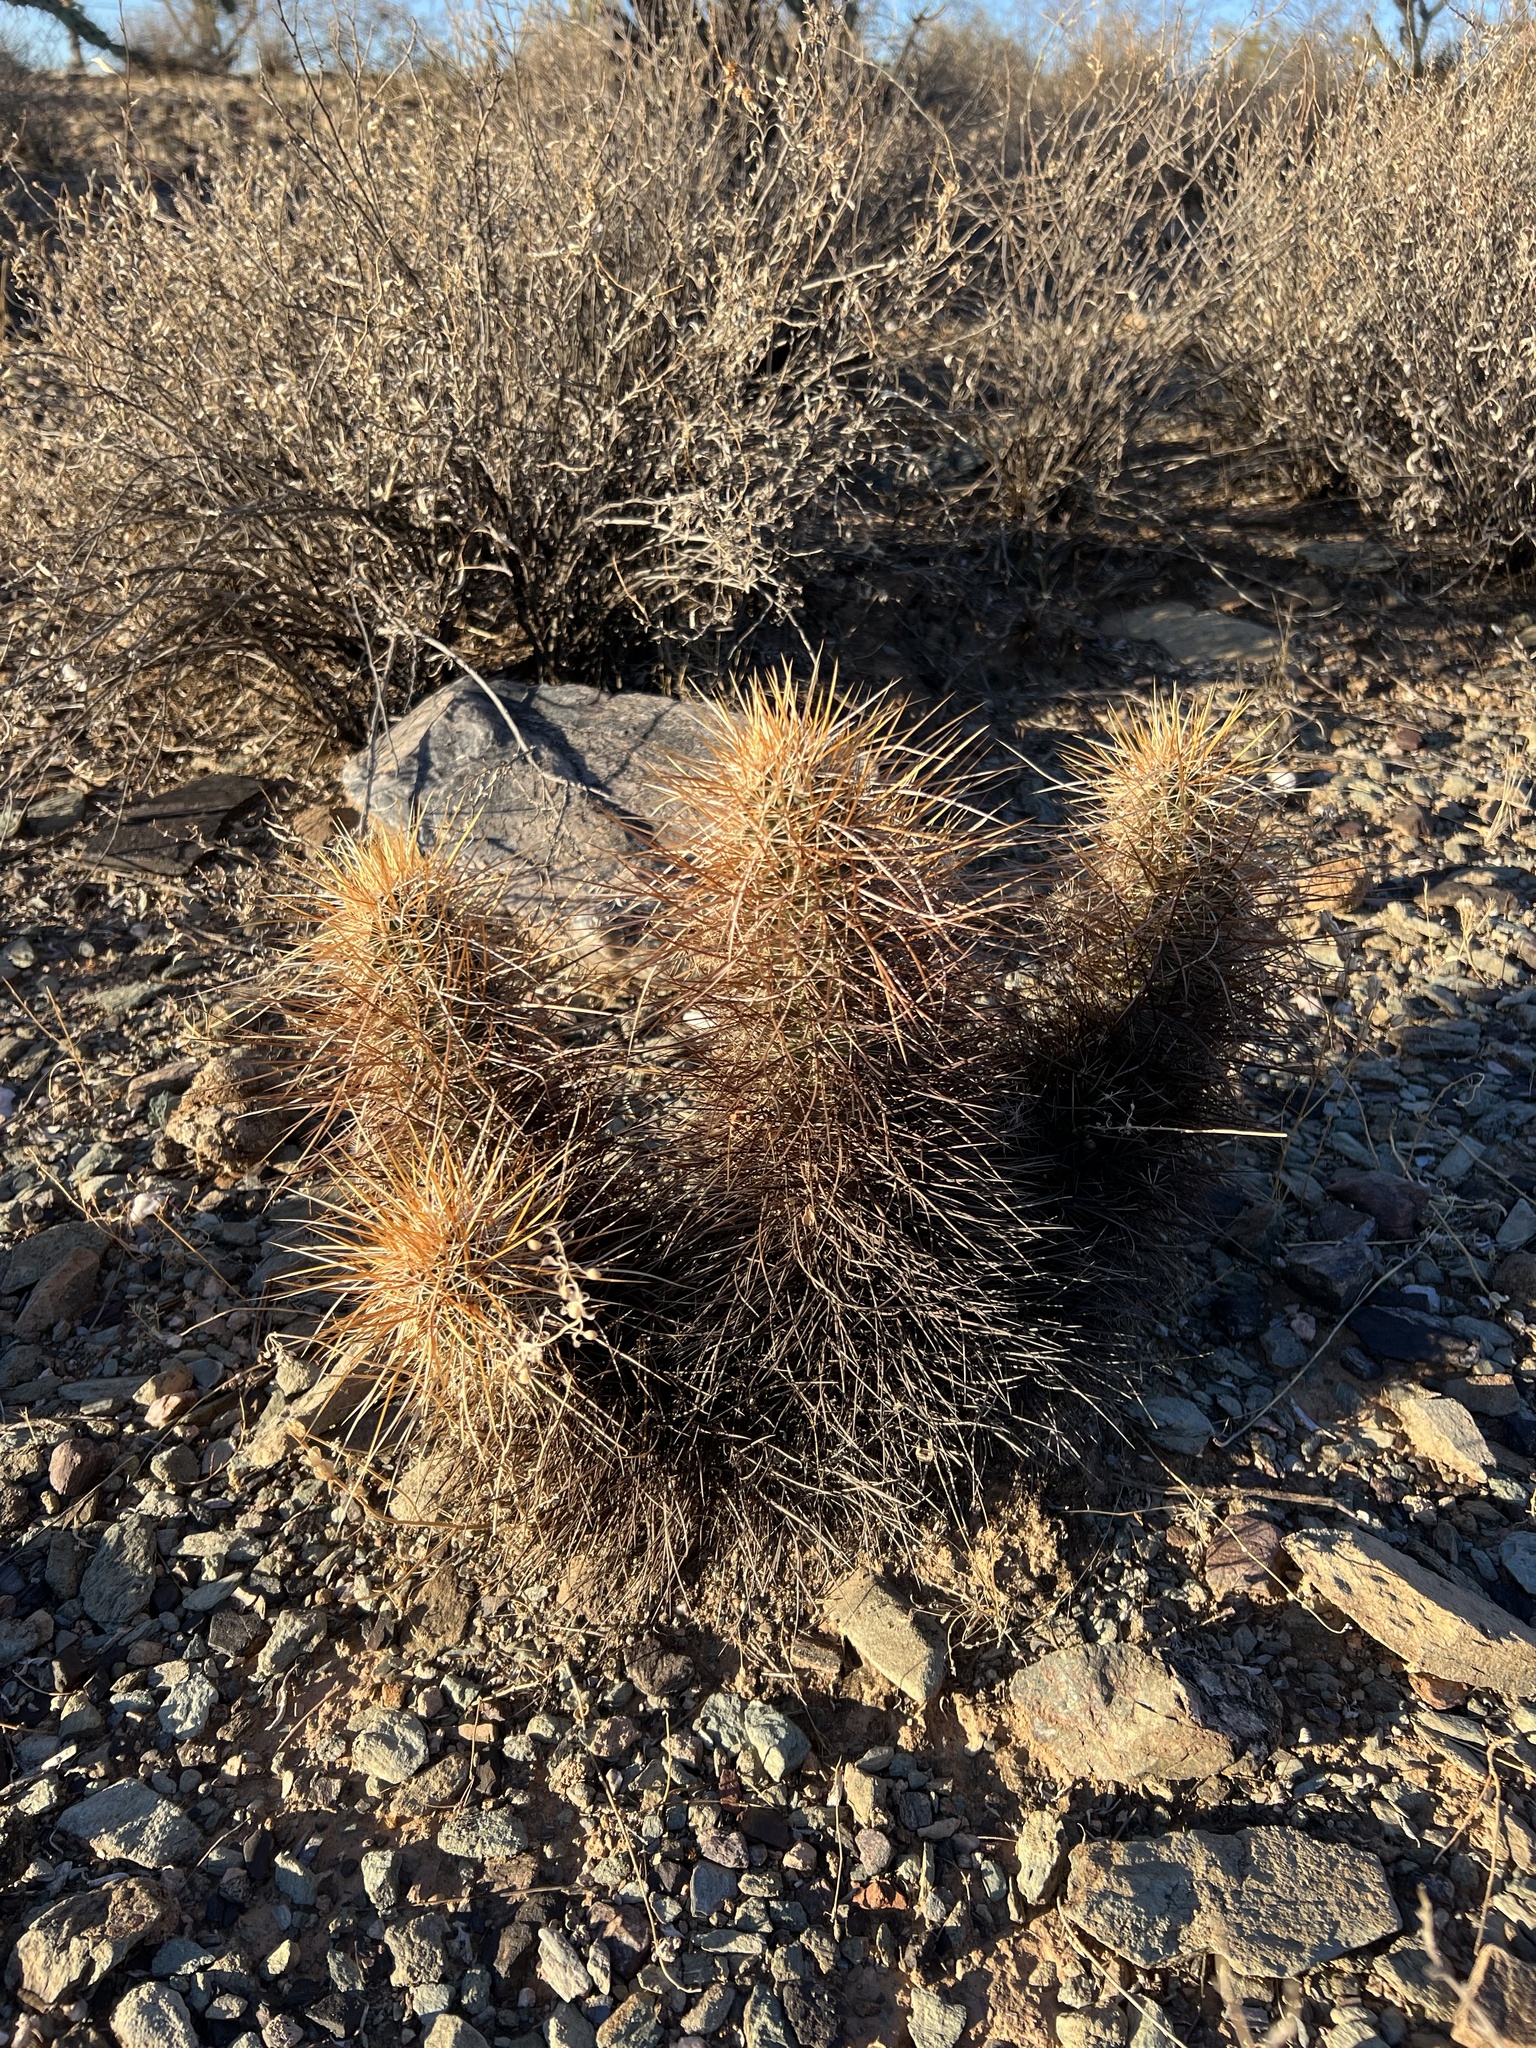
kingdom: Plantae
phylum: Tracheophyta
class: Magnoliopsida
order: Caryophyllales
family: Cactaceae
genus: Echinocereus
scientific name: Echinocereus engelmannii
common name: Engelmann's hedgehog cactus
